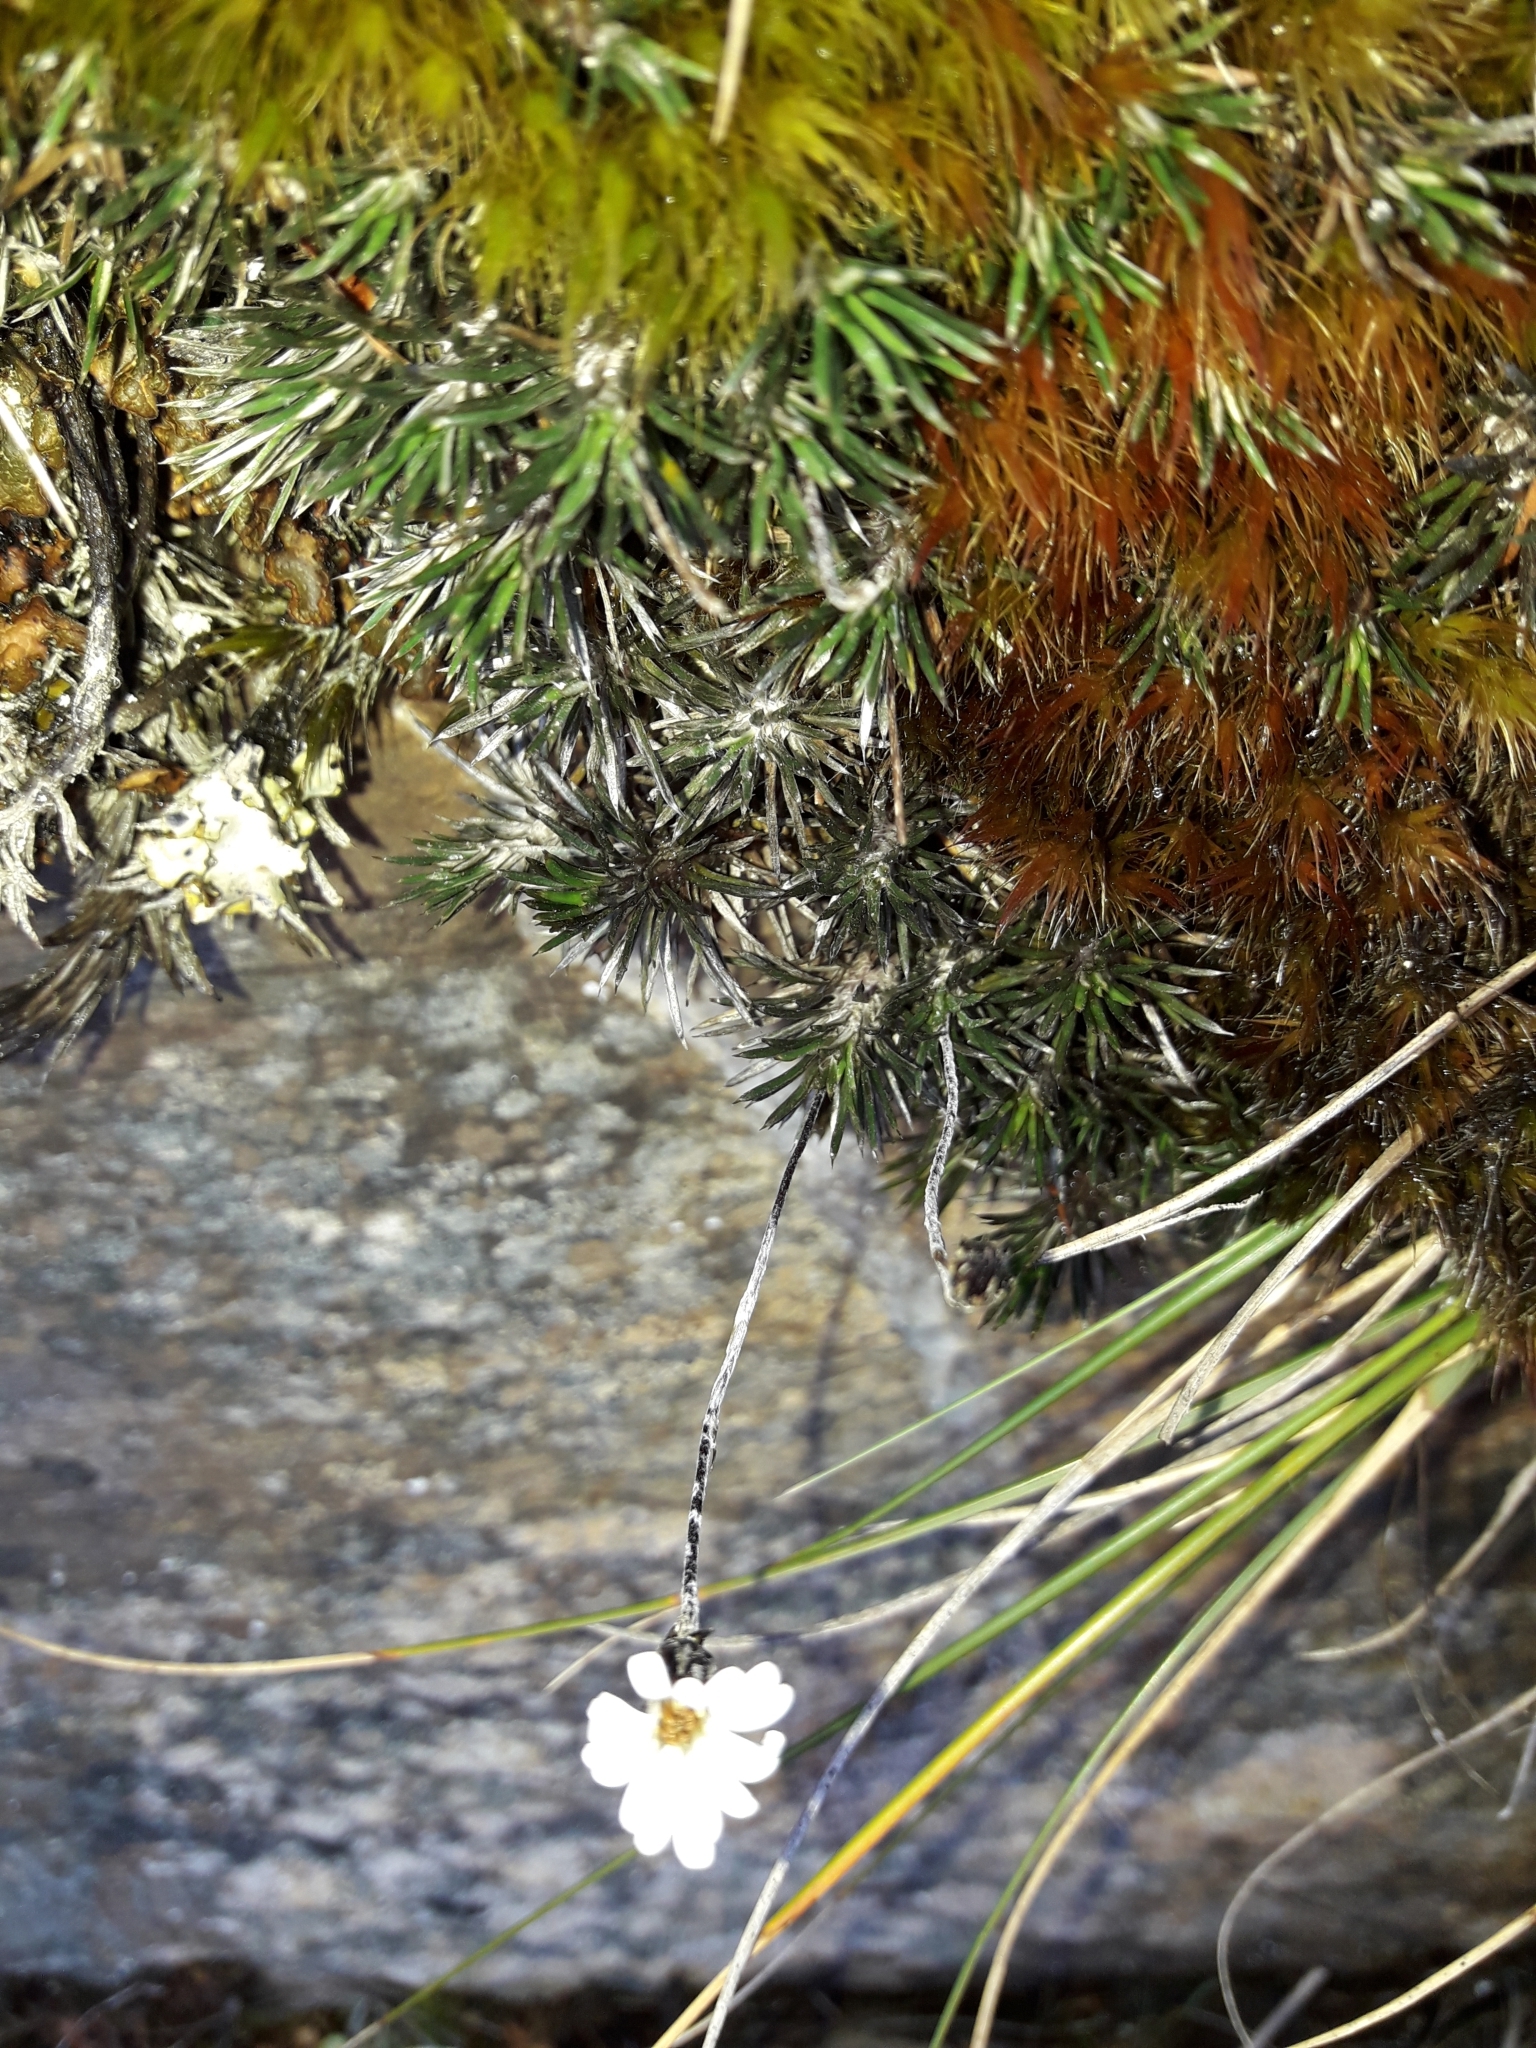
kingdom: Plantae
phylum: Tracheophyta
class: Magnoliopsida
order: Asterales
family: Asteraceae
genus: Celmisia
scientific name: Celmisia laricifolia
